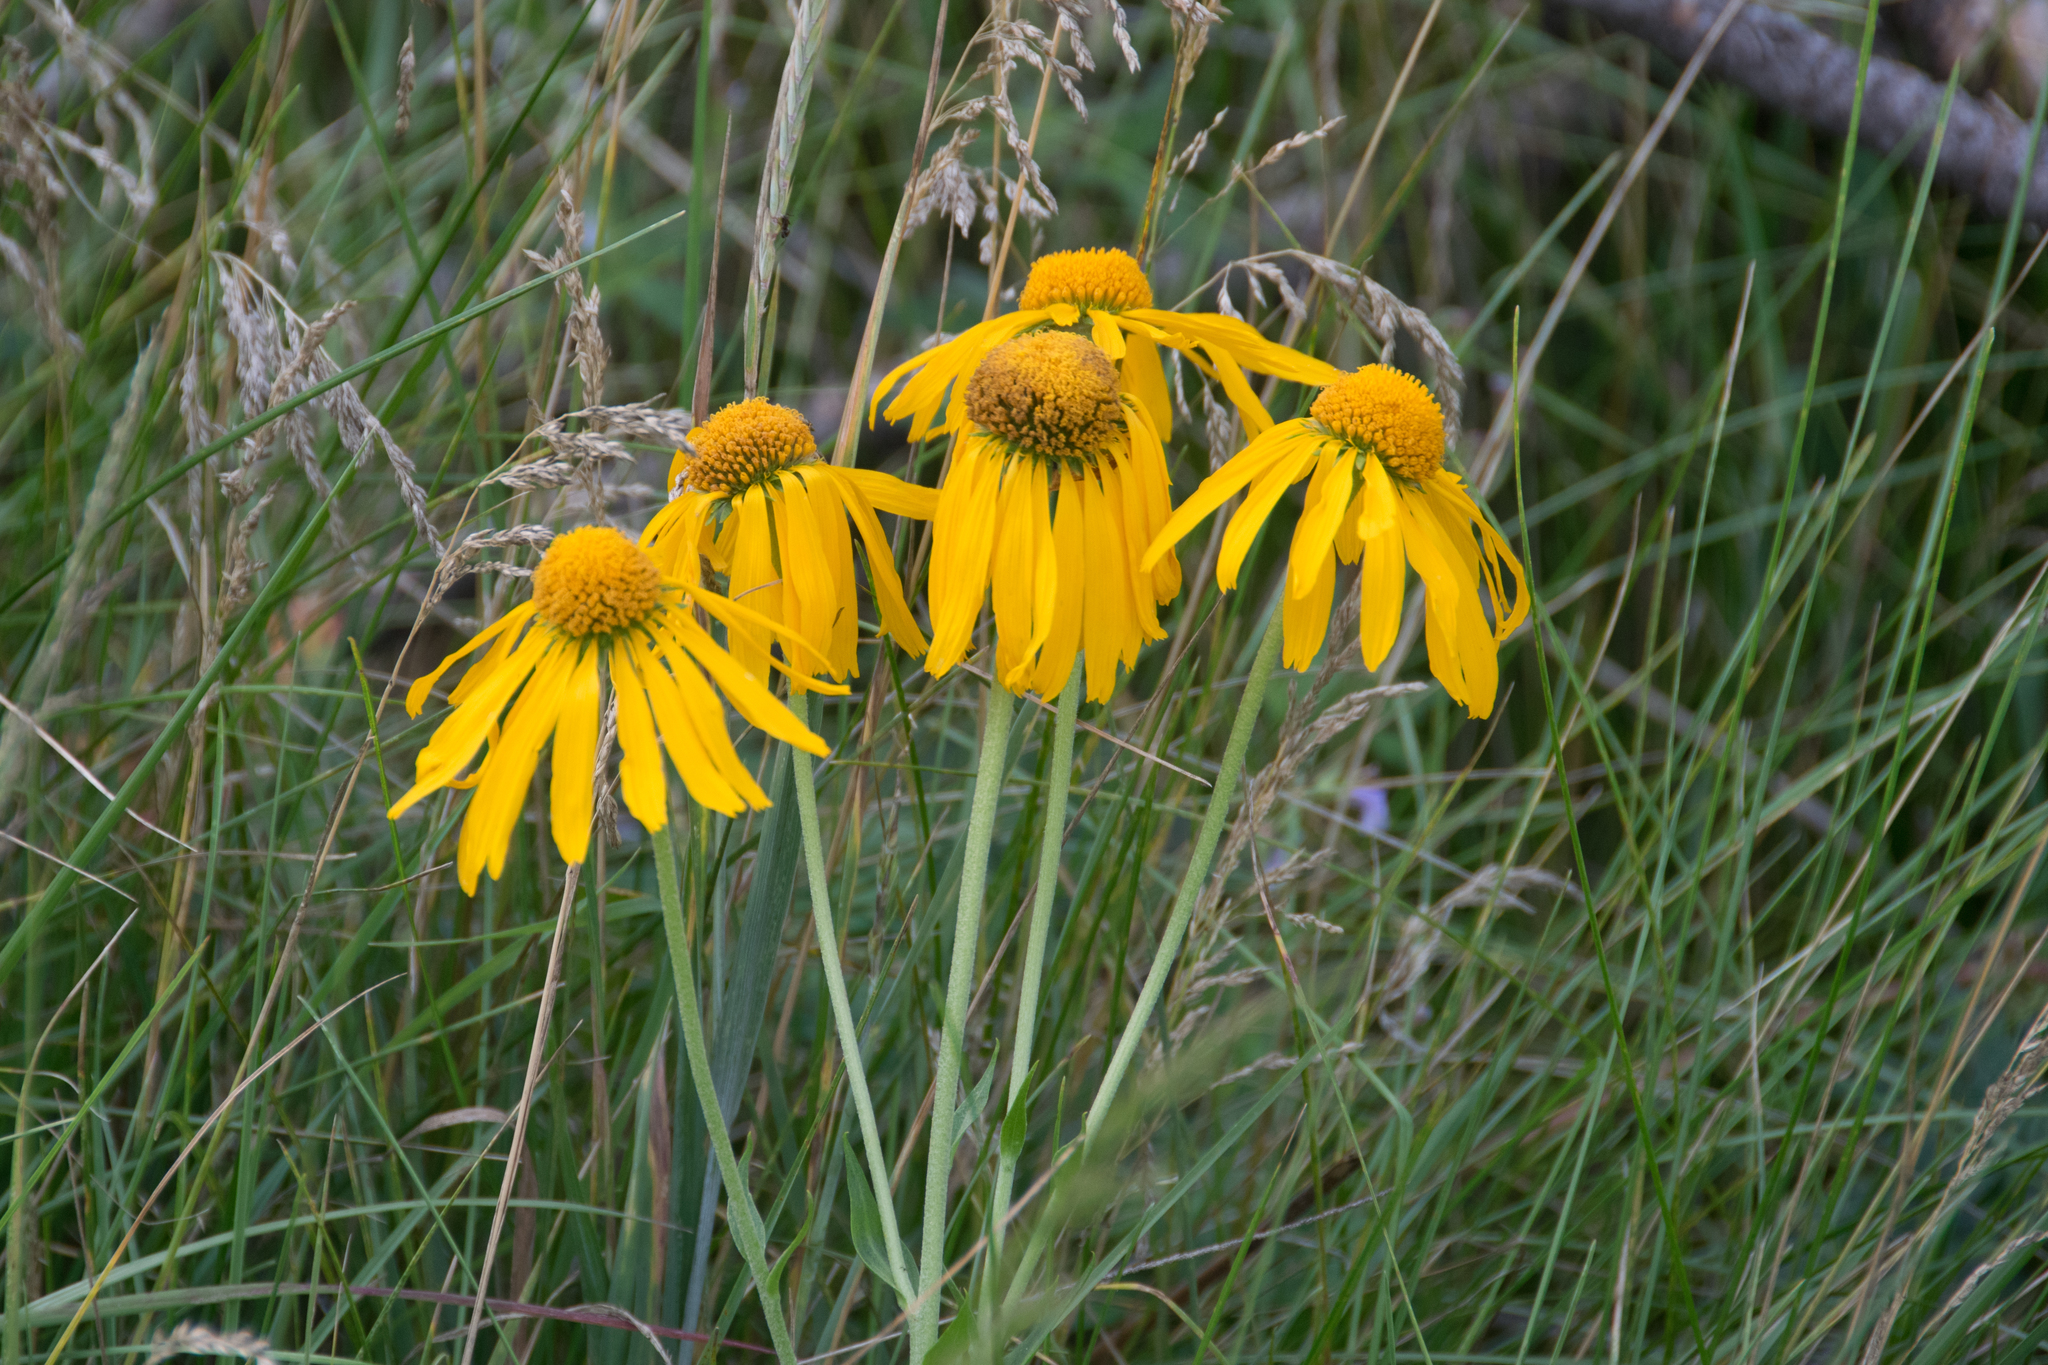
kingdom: Plantae
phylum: Tracheophyta
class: Magnoliopsida
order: Asterales
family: Asteraceae
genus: Hymenoxys
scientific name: Hymenoxys hoopesii
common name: Orange-sneezeweed
